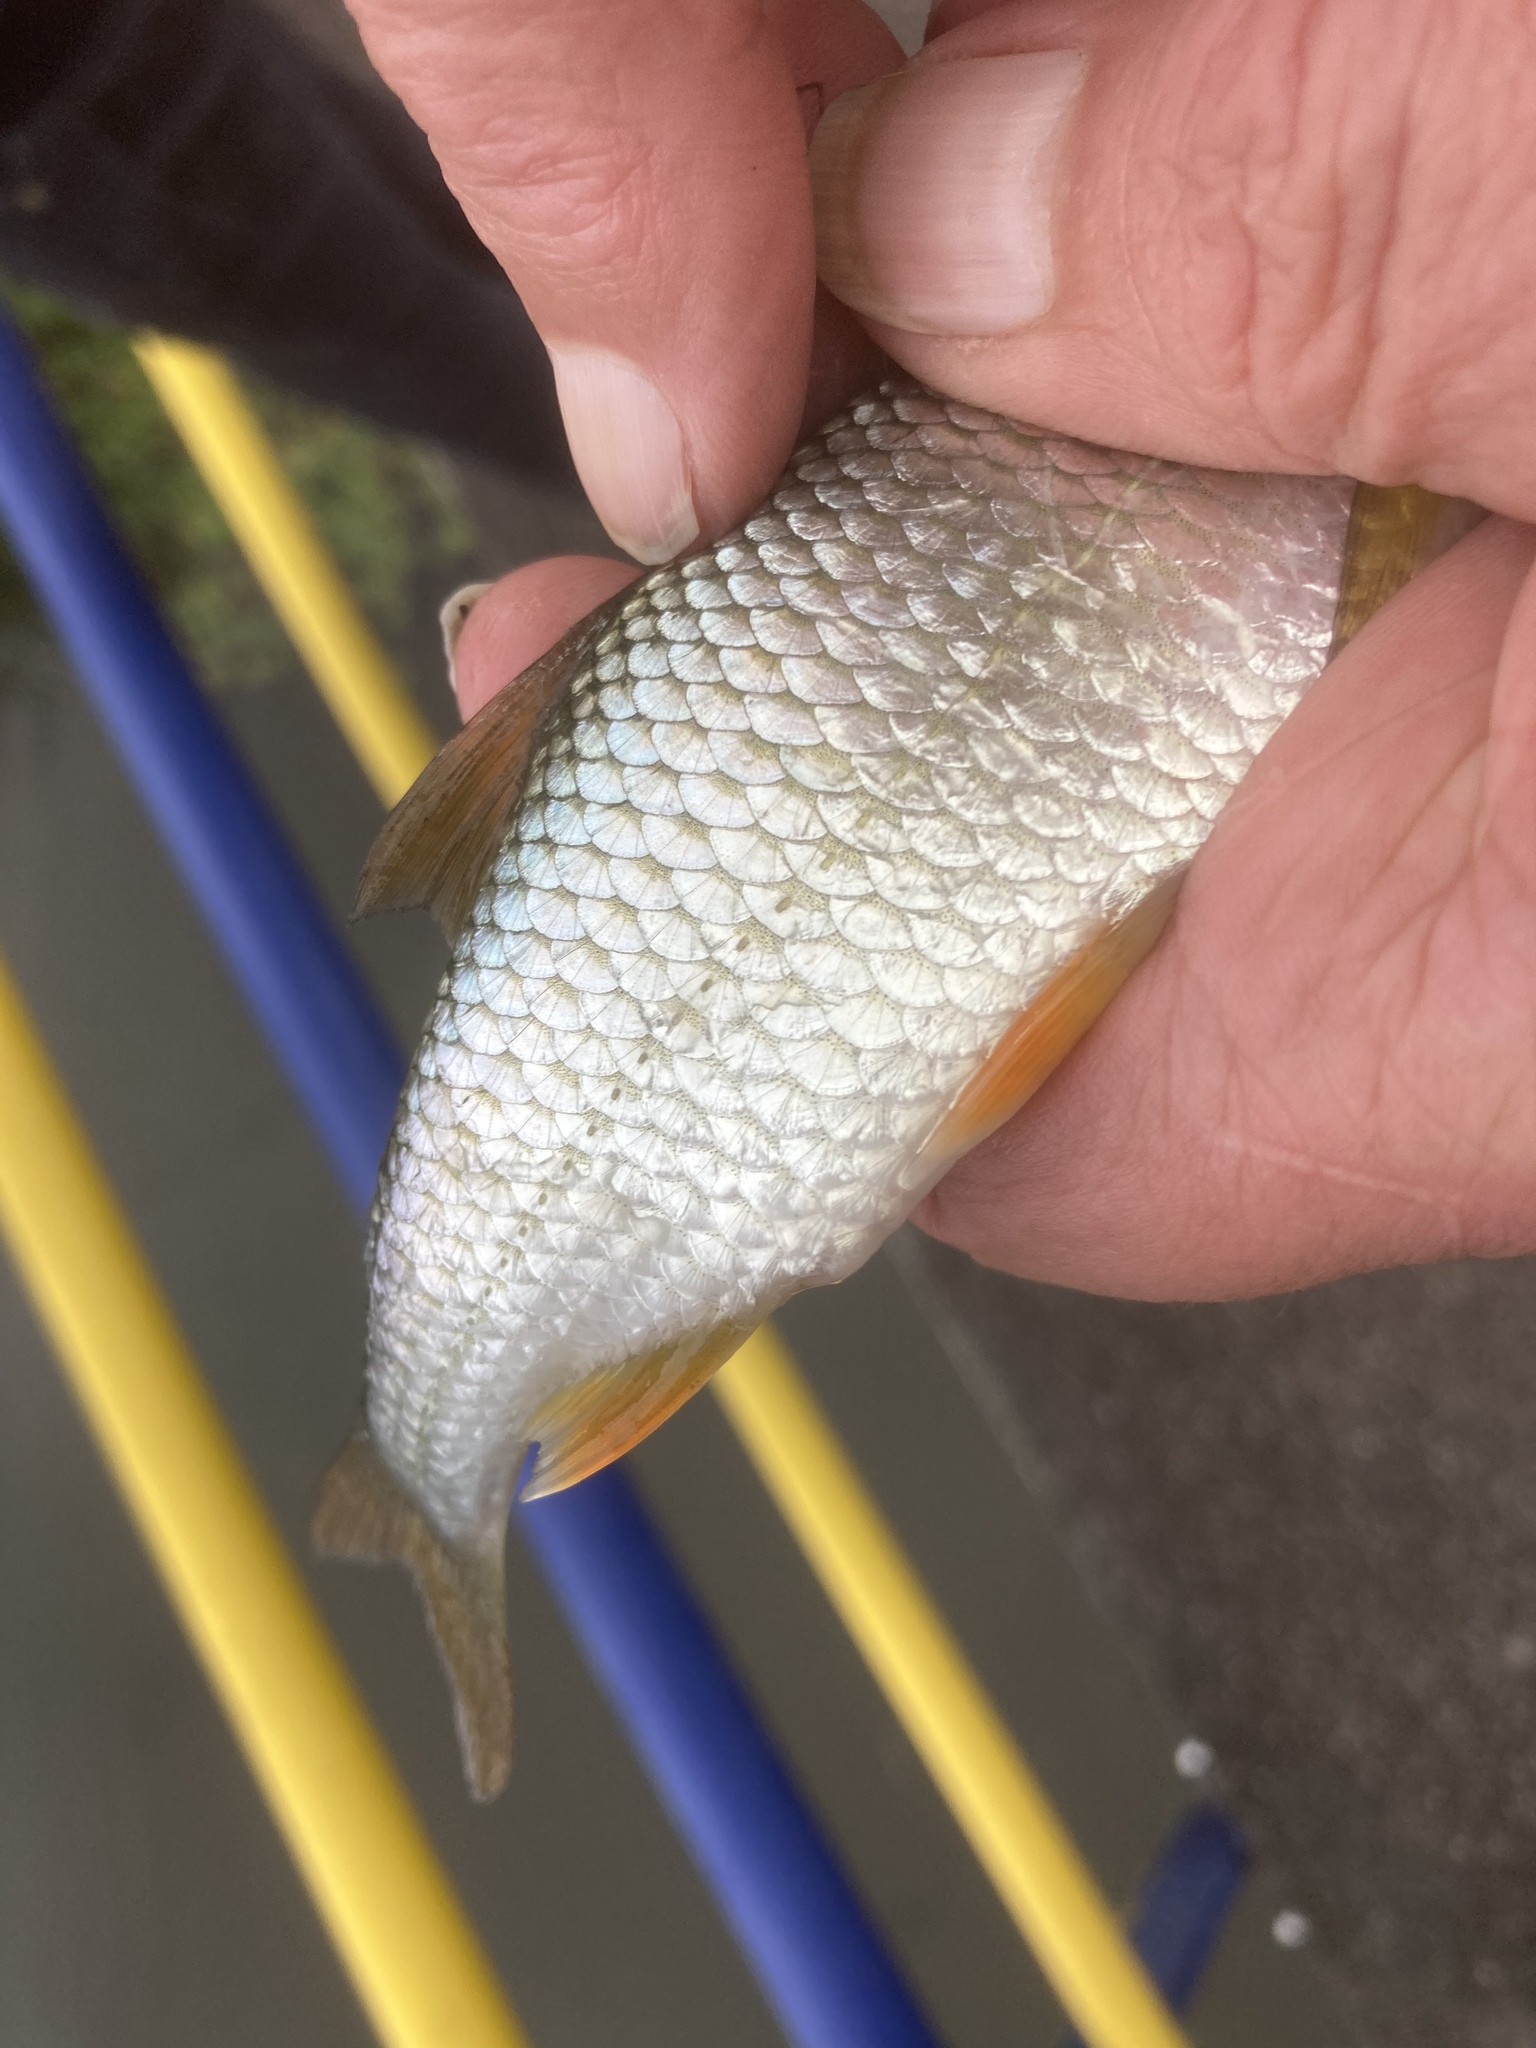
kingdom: Animalia
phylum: Chordata
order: Cypriniformes
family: Cyprinidae
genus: Rutilus
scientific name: Rutilus rutilus
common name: Roach
